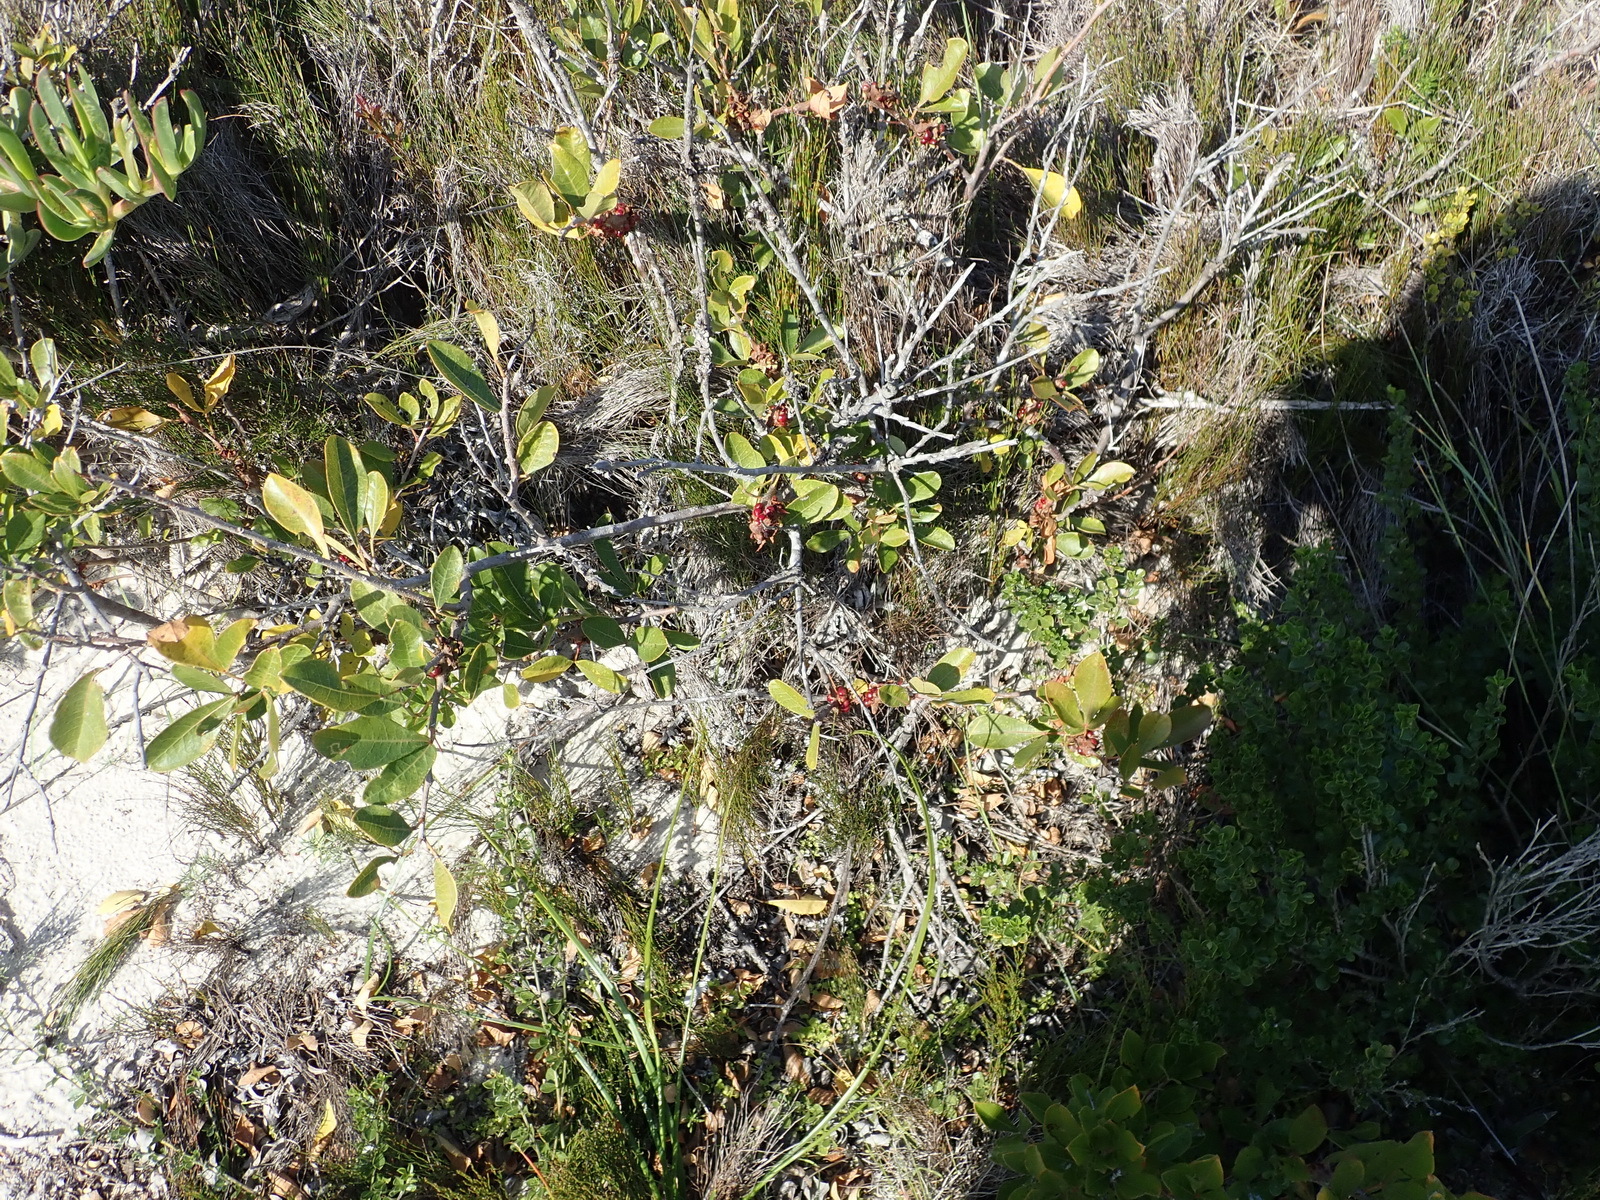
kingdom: Plantae
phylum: Tracheophyta
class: Magnoliopsida
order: Sapindales
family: Anacardiaceae
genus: Searsia
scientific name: Searsia laevigata
